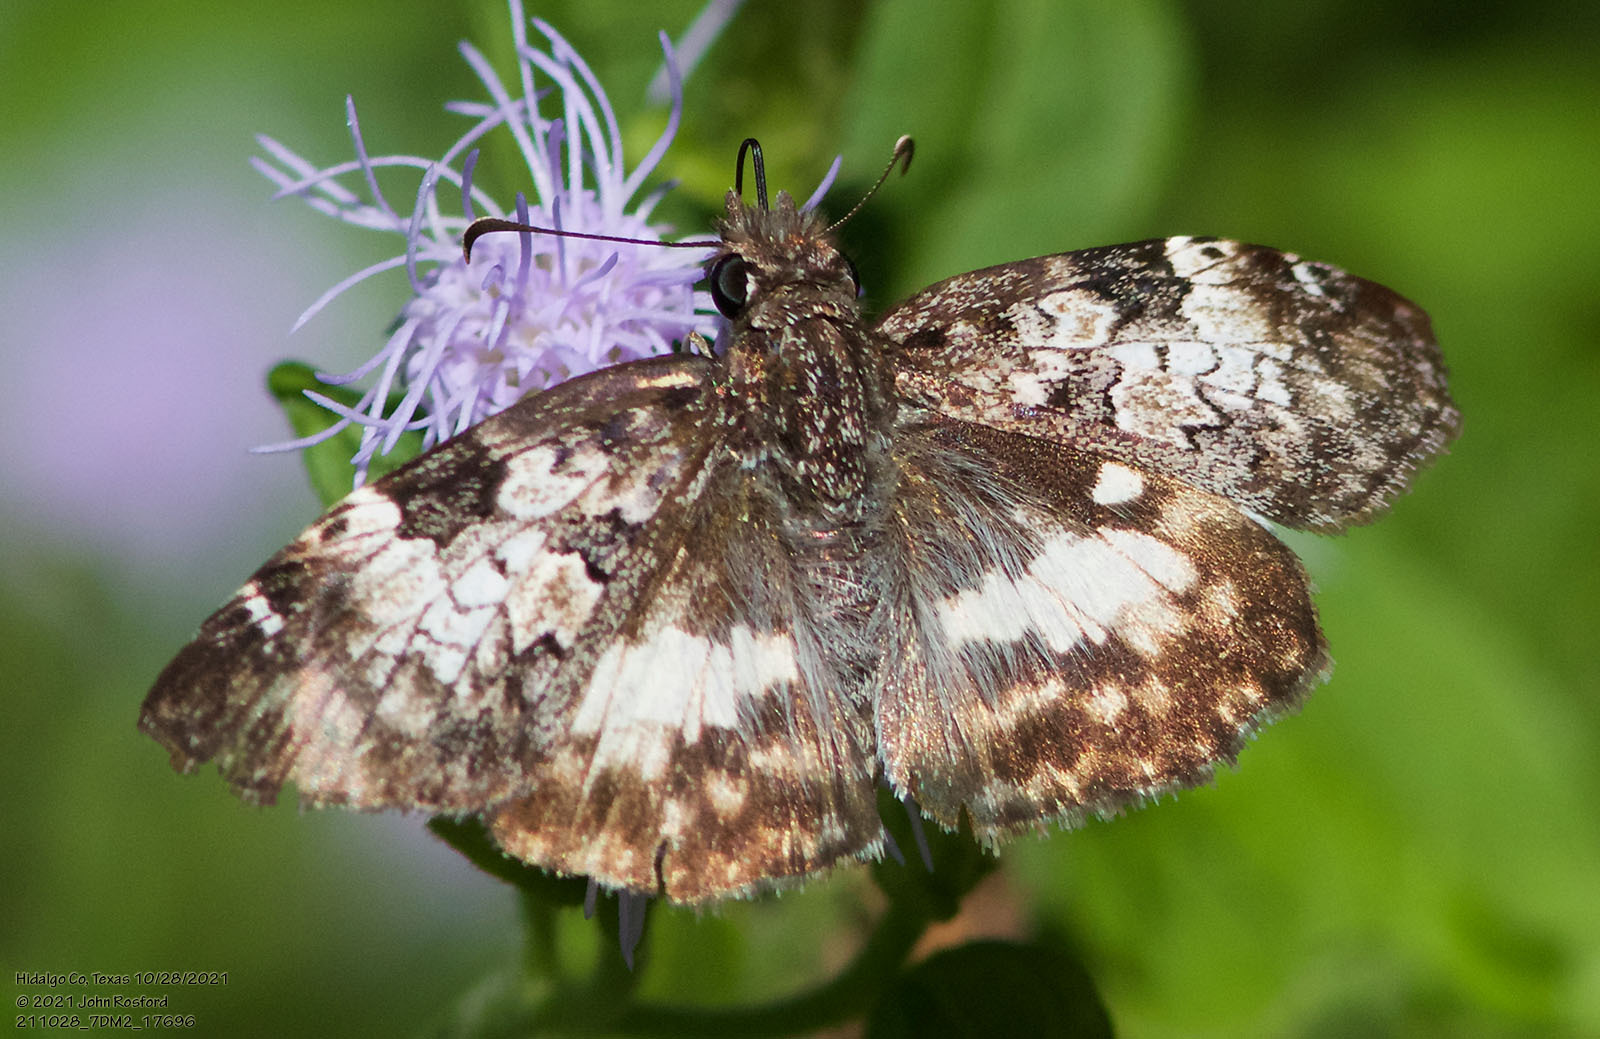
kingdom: Animalia
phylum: Arthropoda
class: Insecta
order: Lepidoptera
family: Hesperiidae
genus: Chiothion
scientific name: Chiothion georgina
